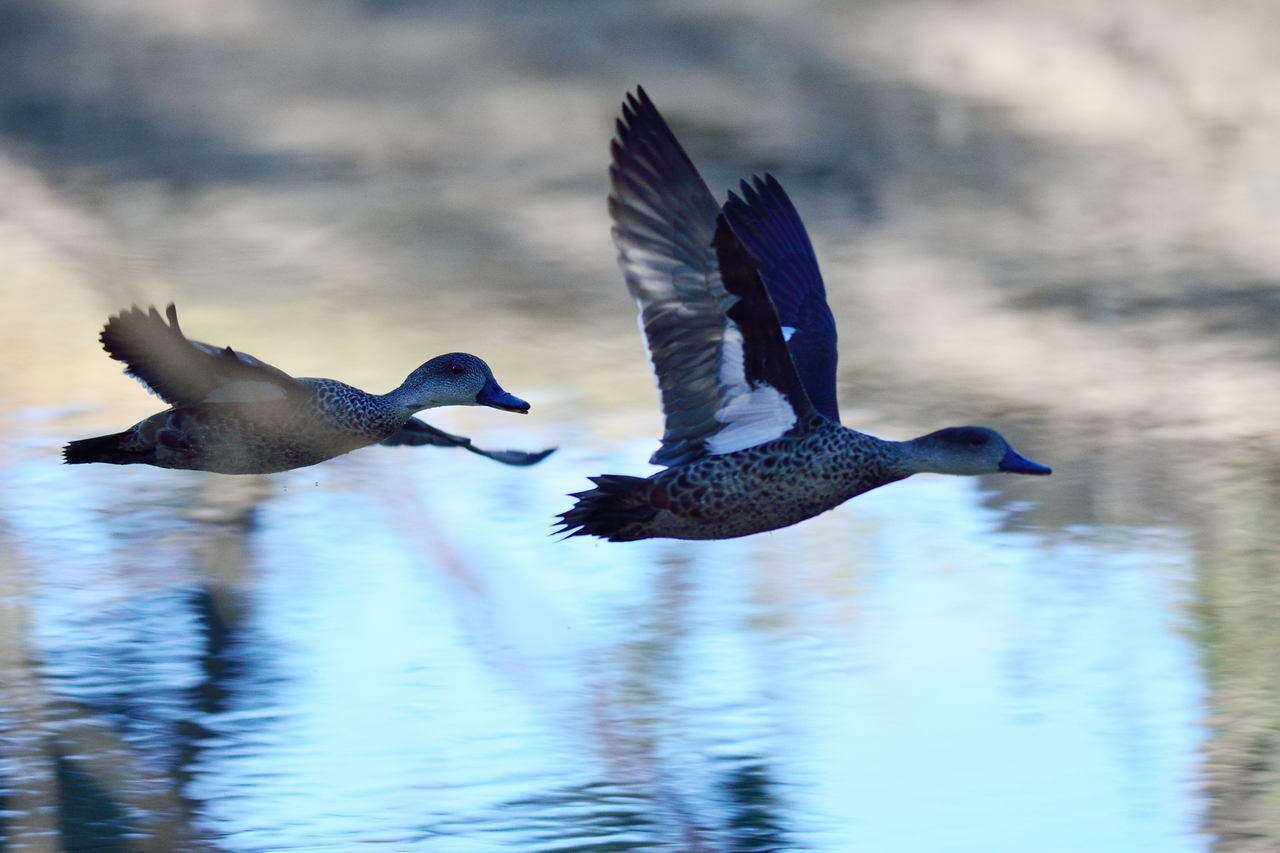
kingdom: Animalia
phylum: Chordata
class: Aves
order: Anseriformes
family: Anatidae
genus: Anas
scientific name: Anas gracilis
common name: Grey teal
